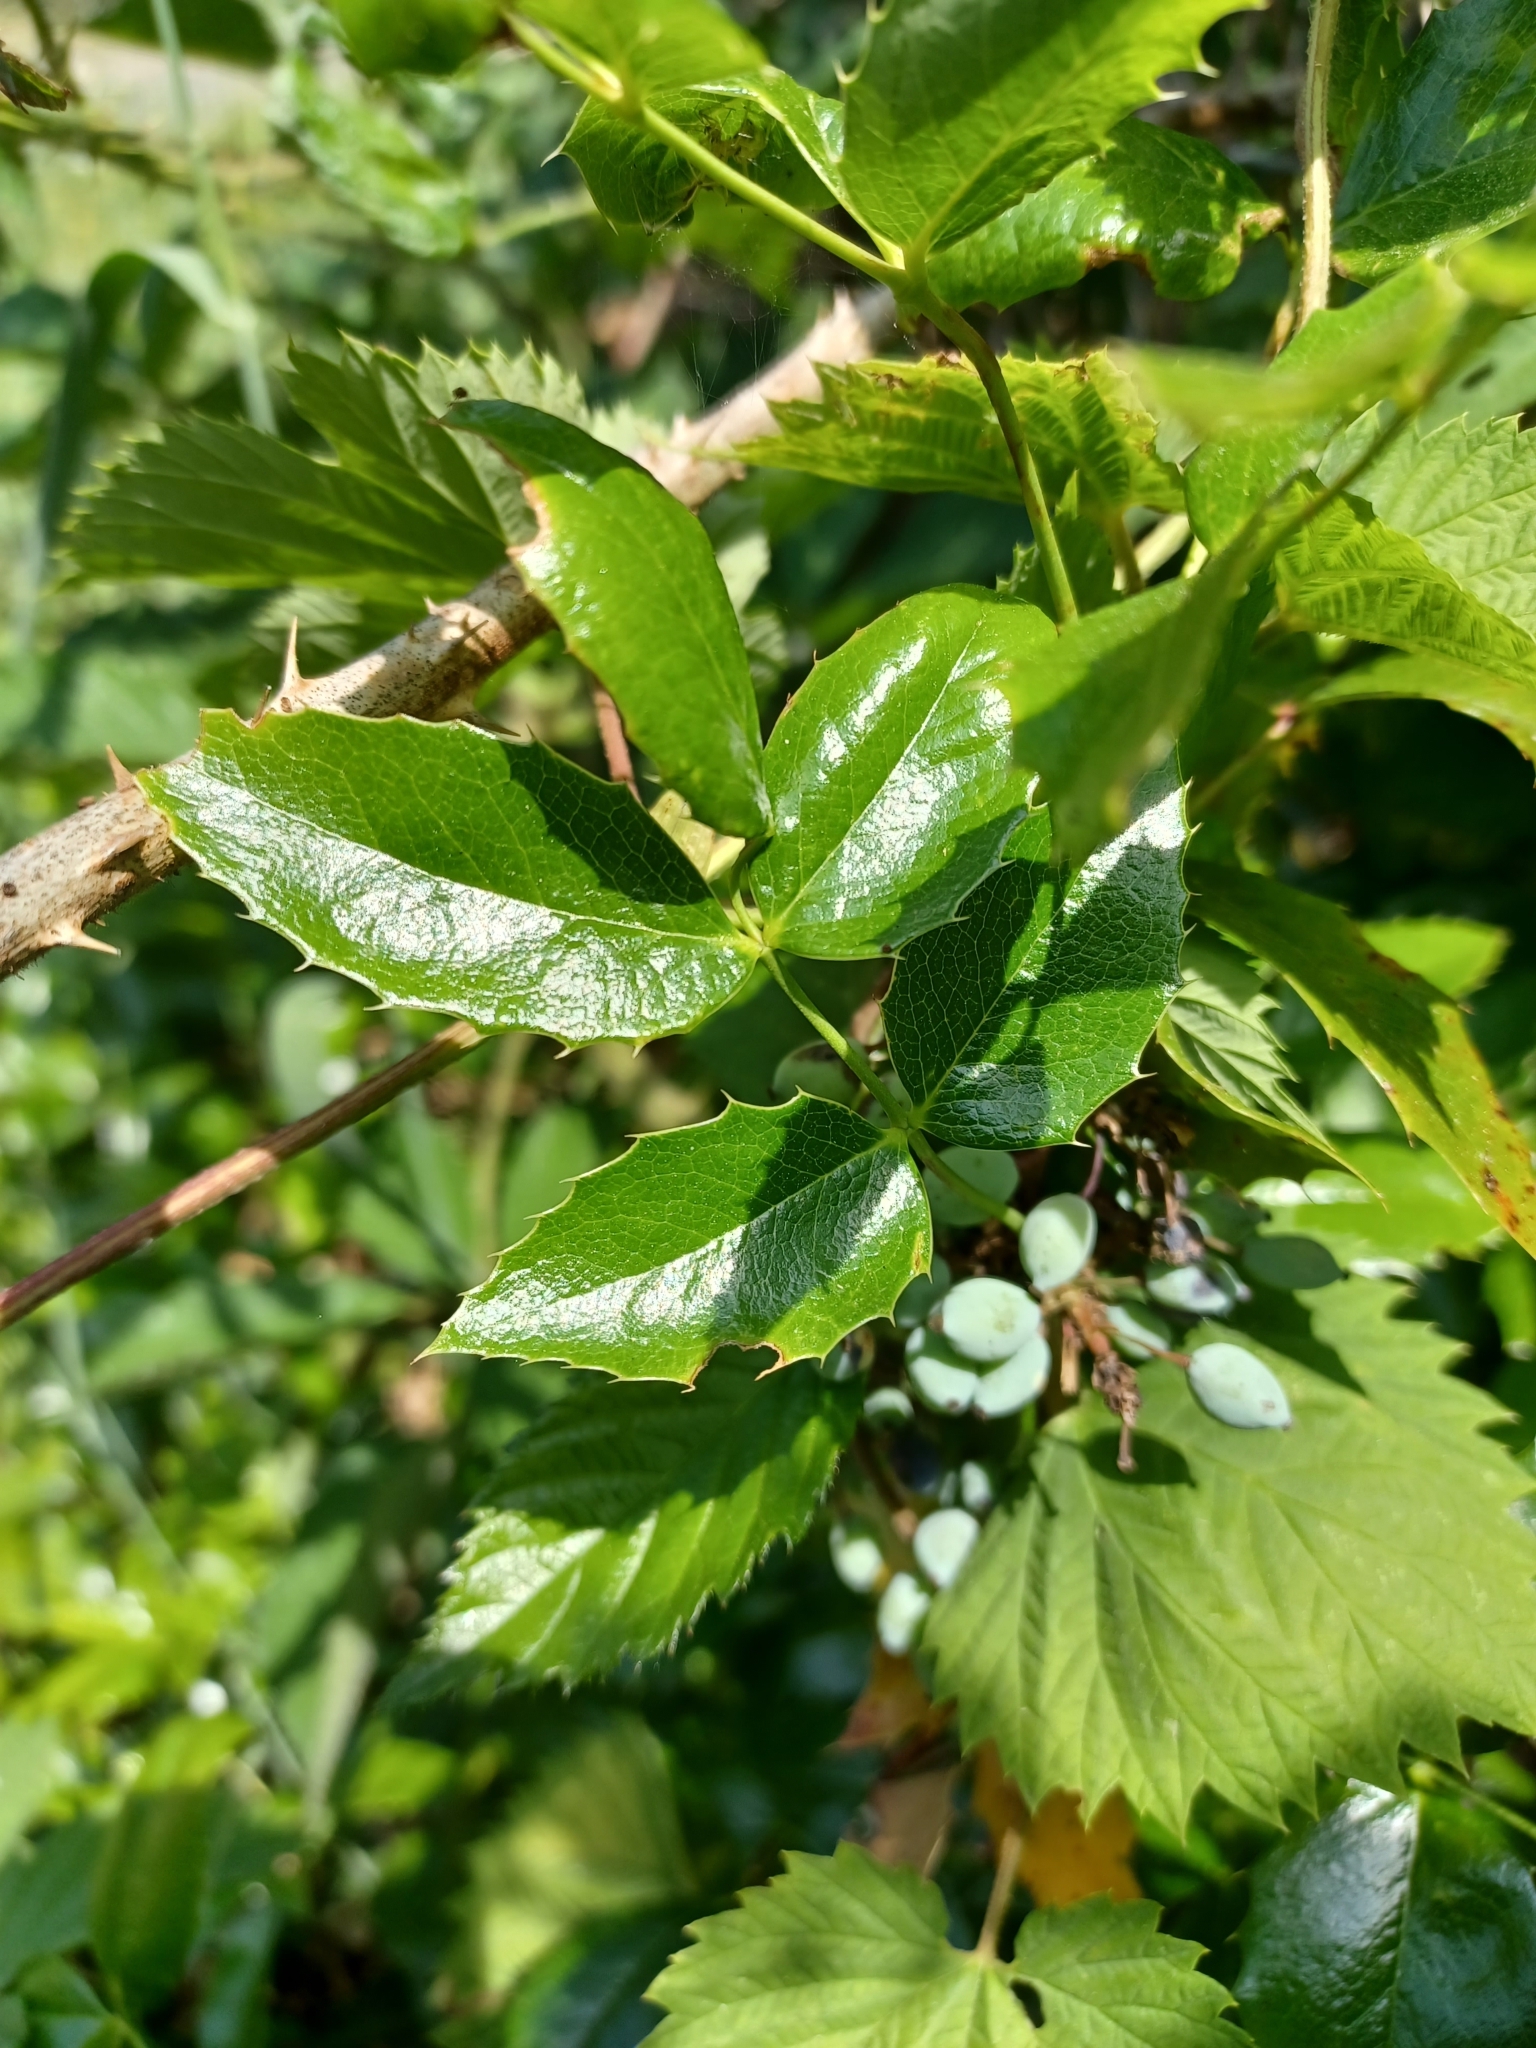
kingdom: Plantae
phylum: Tracheophyta
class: Magnoliopsida
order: Ranunculales
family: Berberidaceae
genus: Mahonia
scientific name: Mahonia aquifolium
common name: Oregon-grape
